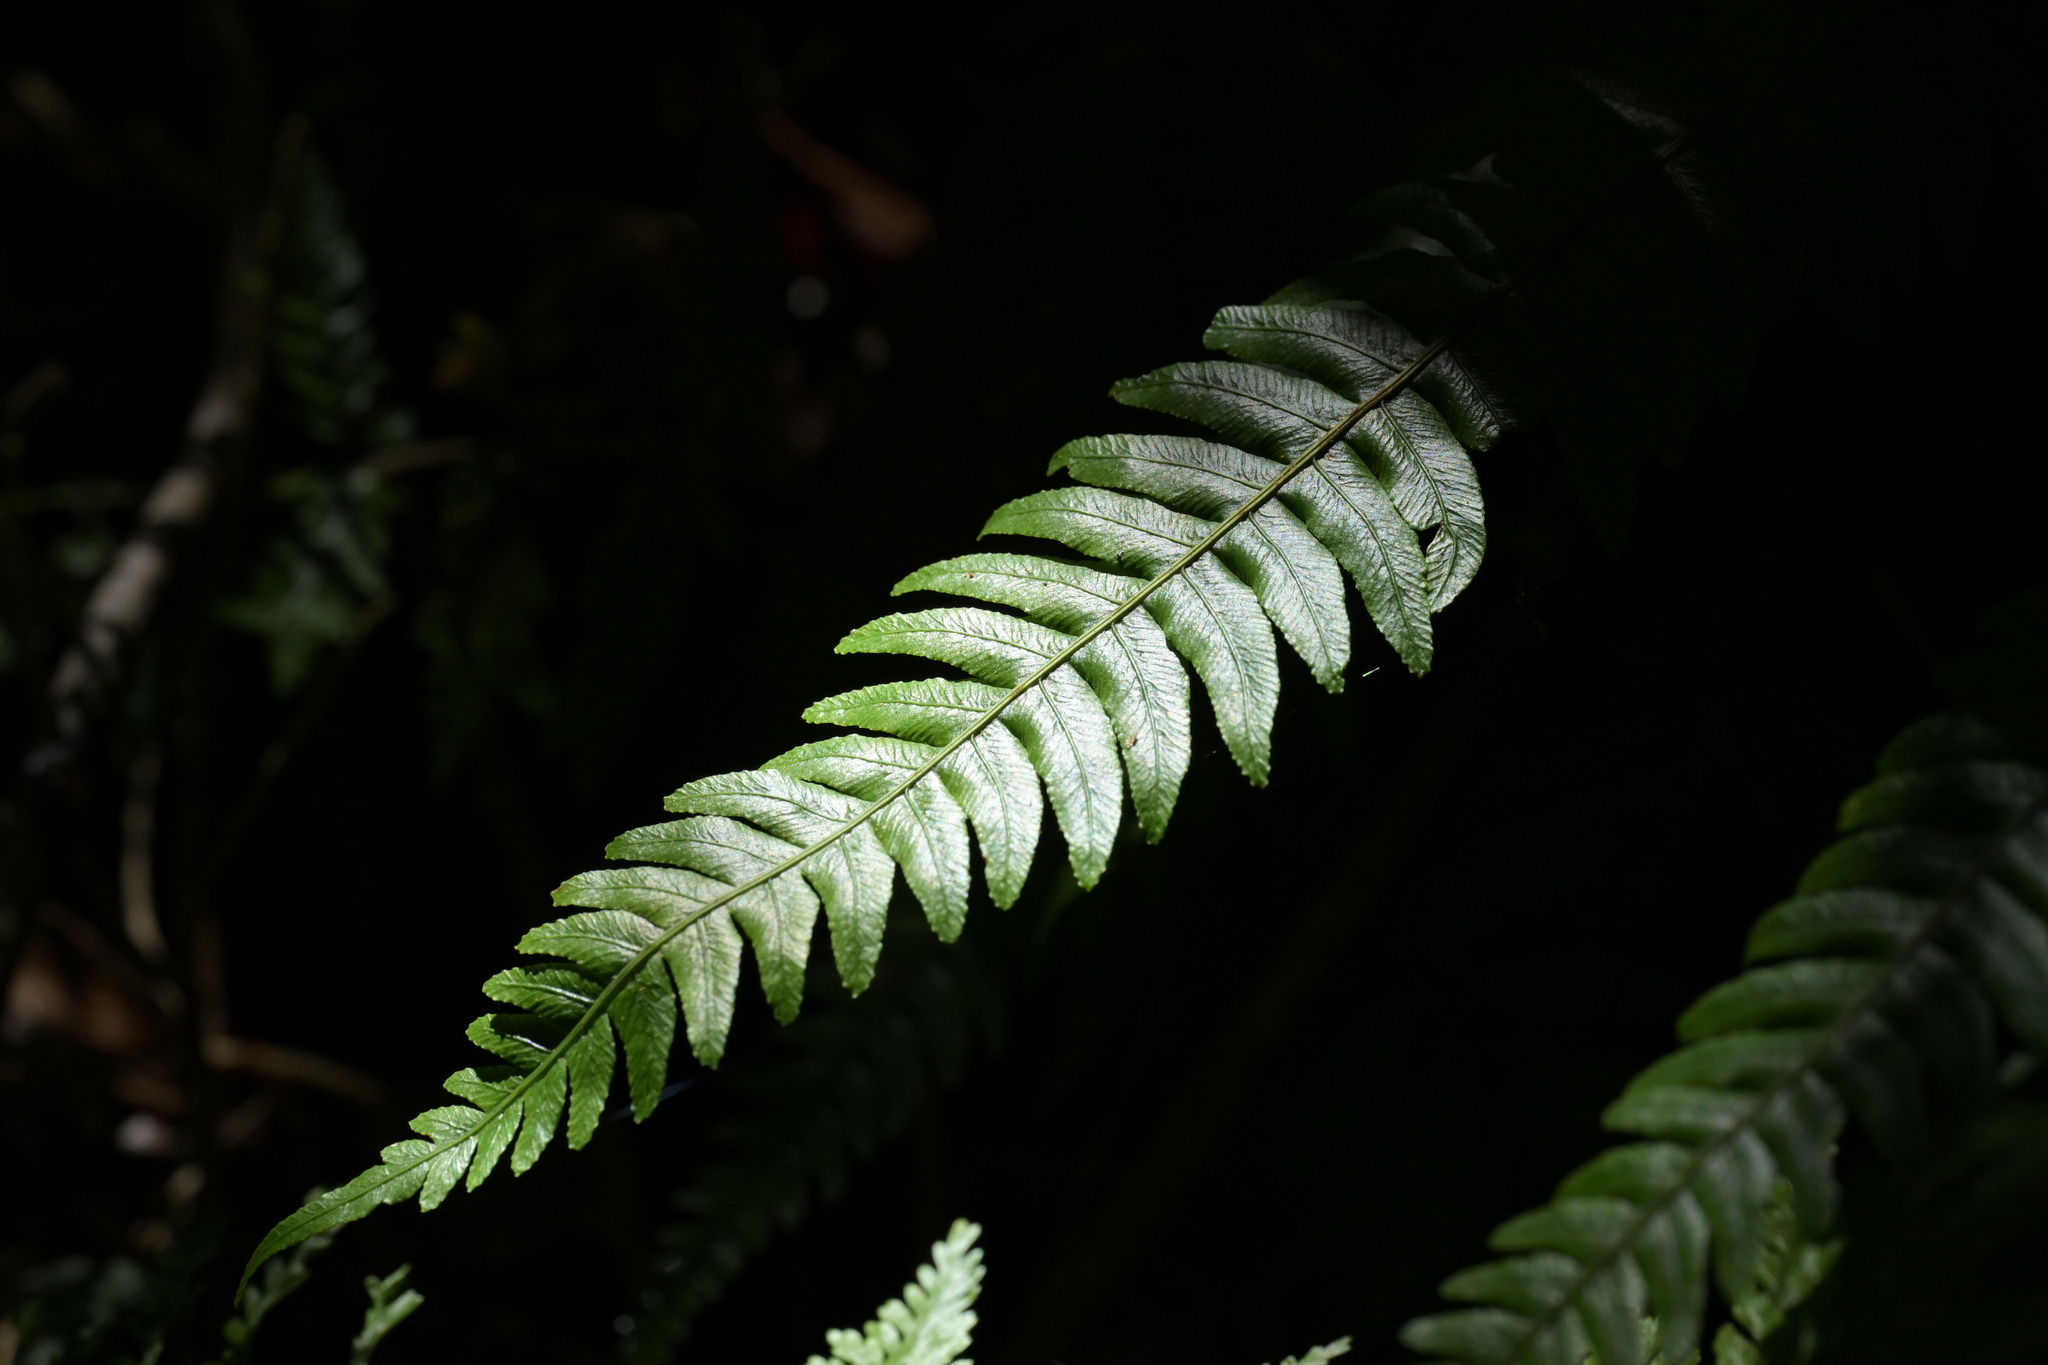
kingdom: Plantae
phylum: Tracheophyta
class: Polypodiopsida
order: Polypodiales
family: Blechnaceae
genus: Austroblechnum
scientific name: Austroblechnum lanceolatum
